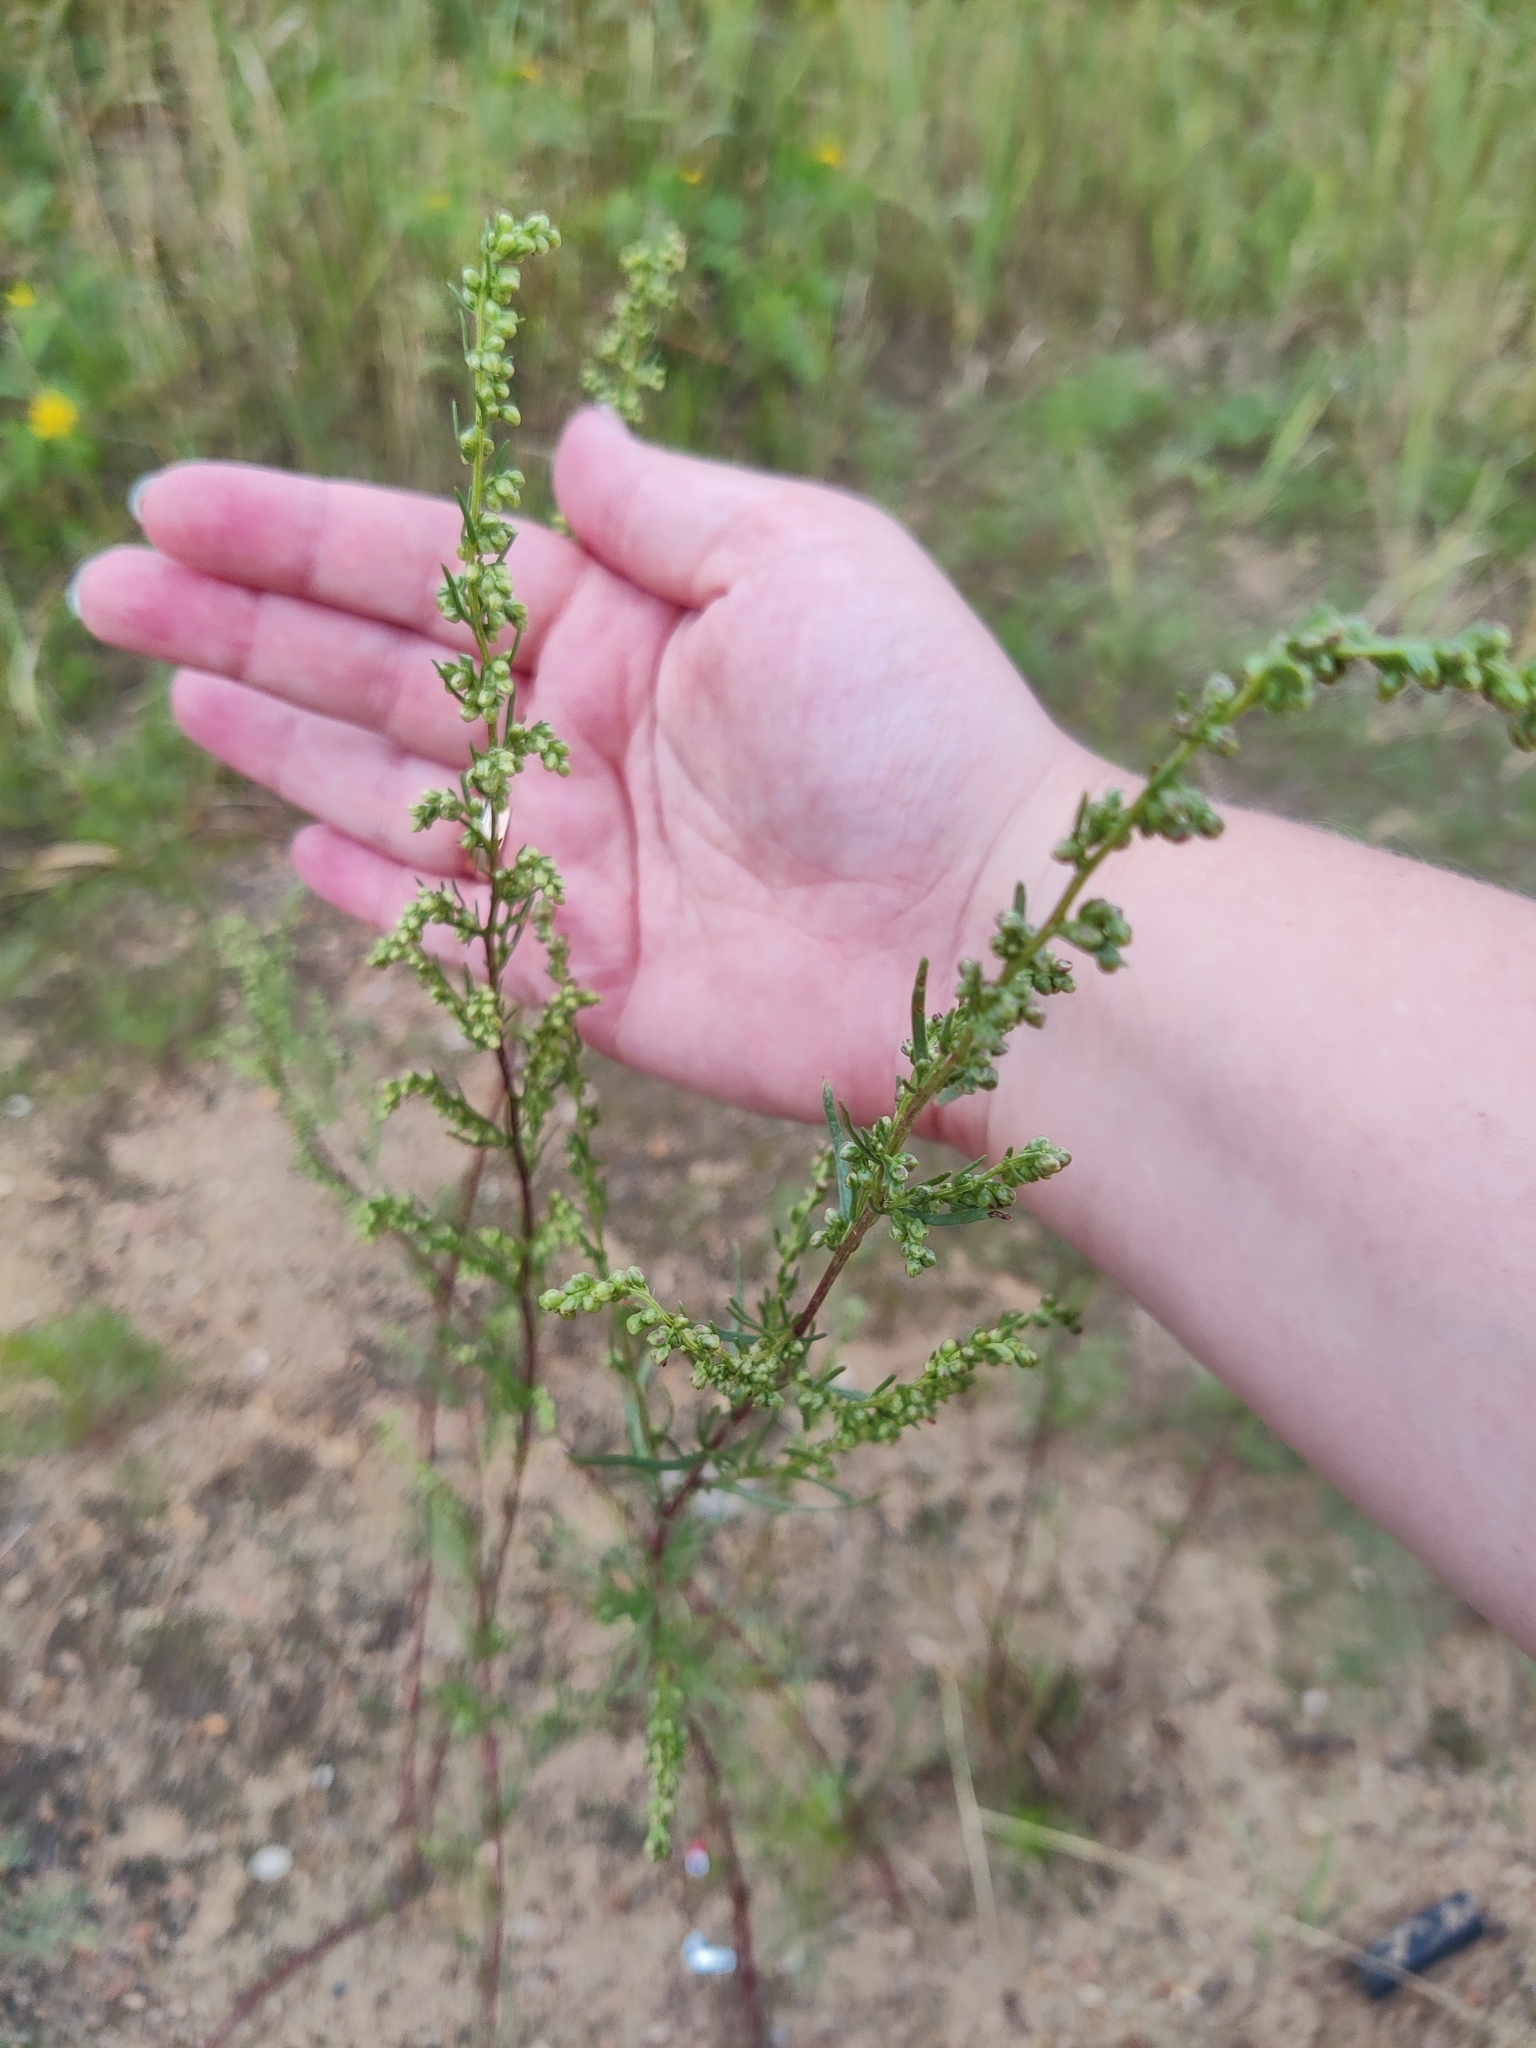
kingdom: Plantae
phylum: Tracheophyta
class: Magnoliopsida
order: Asterales
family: Asteraceae
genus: Artemisia
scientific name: Artemisia campestris
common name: Field wormwood
